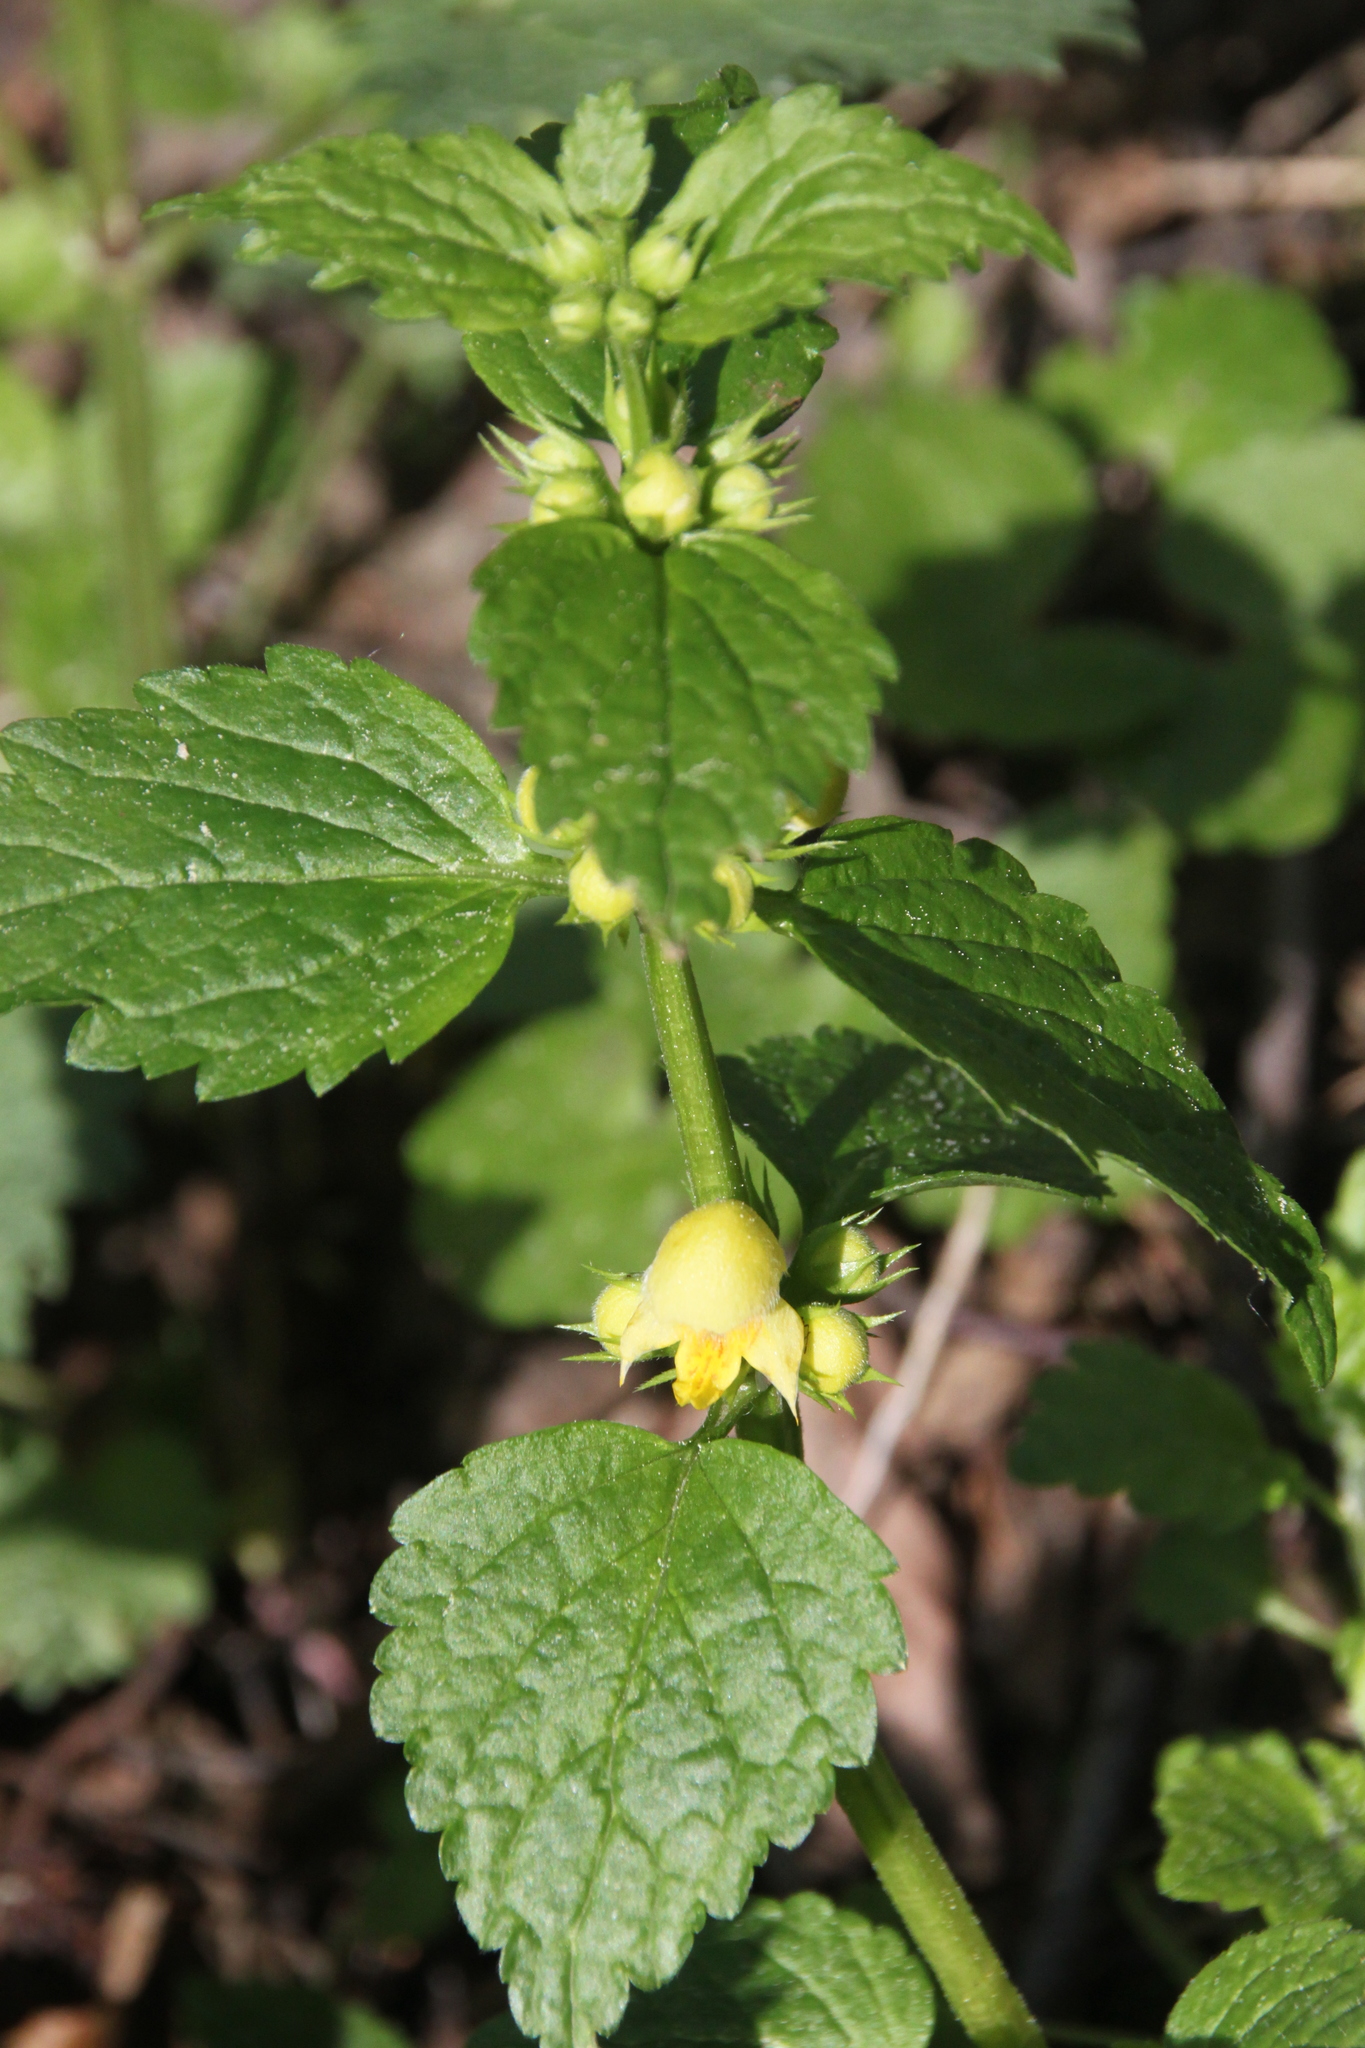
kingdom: Plantae
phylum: Tracheophyta
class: Magnoliopsida
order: Lamiales
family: Lamiaceae
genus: Lamium
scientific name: Lamium galeobdolon
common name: Yellow archangel
